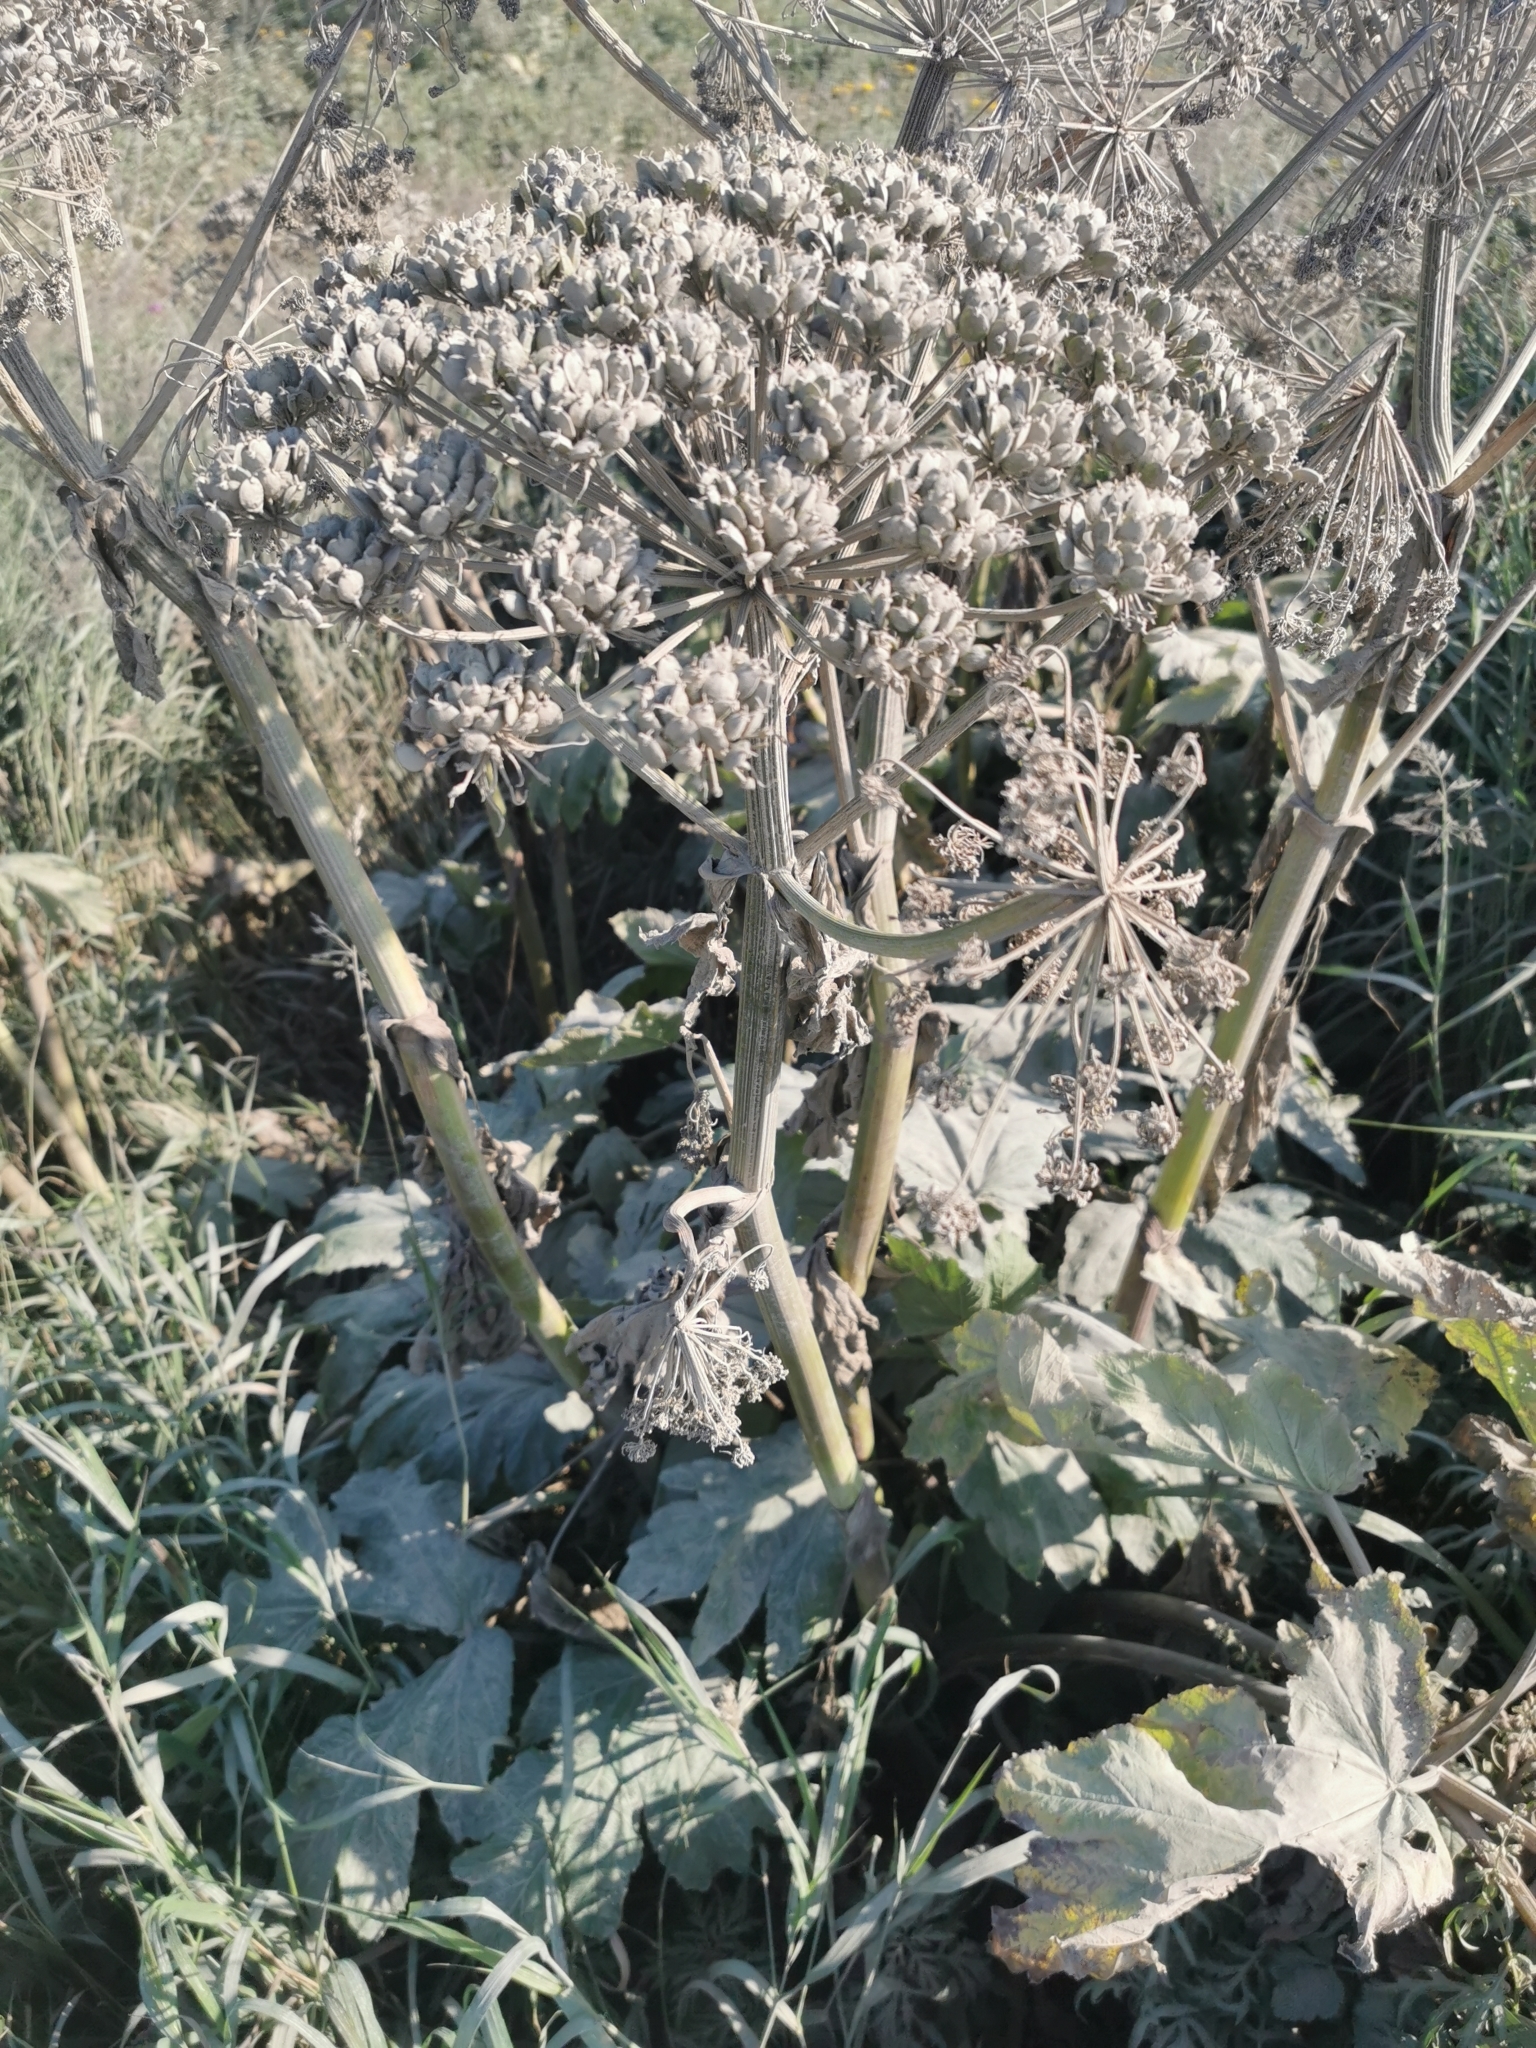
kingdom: Plantae
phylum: Tracheophyta
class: Magnoliopsida
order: Apiales
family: Apiaceae
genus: Heracleum
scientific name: Heracleum maximum
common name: American cow parsnip
